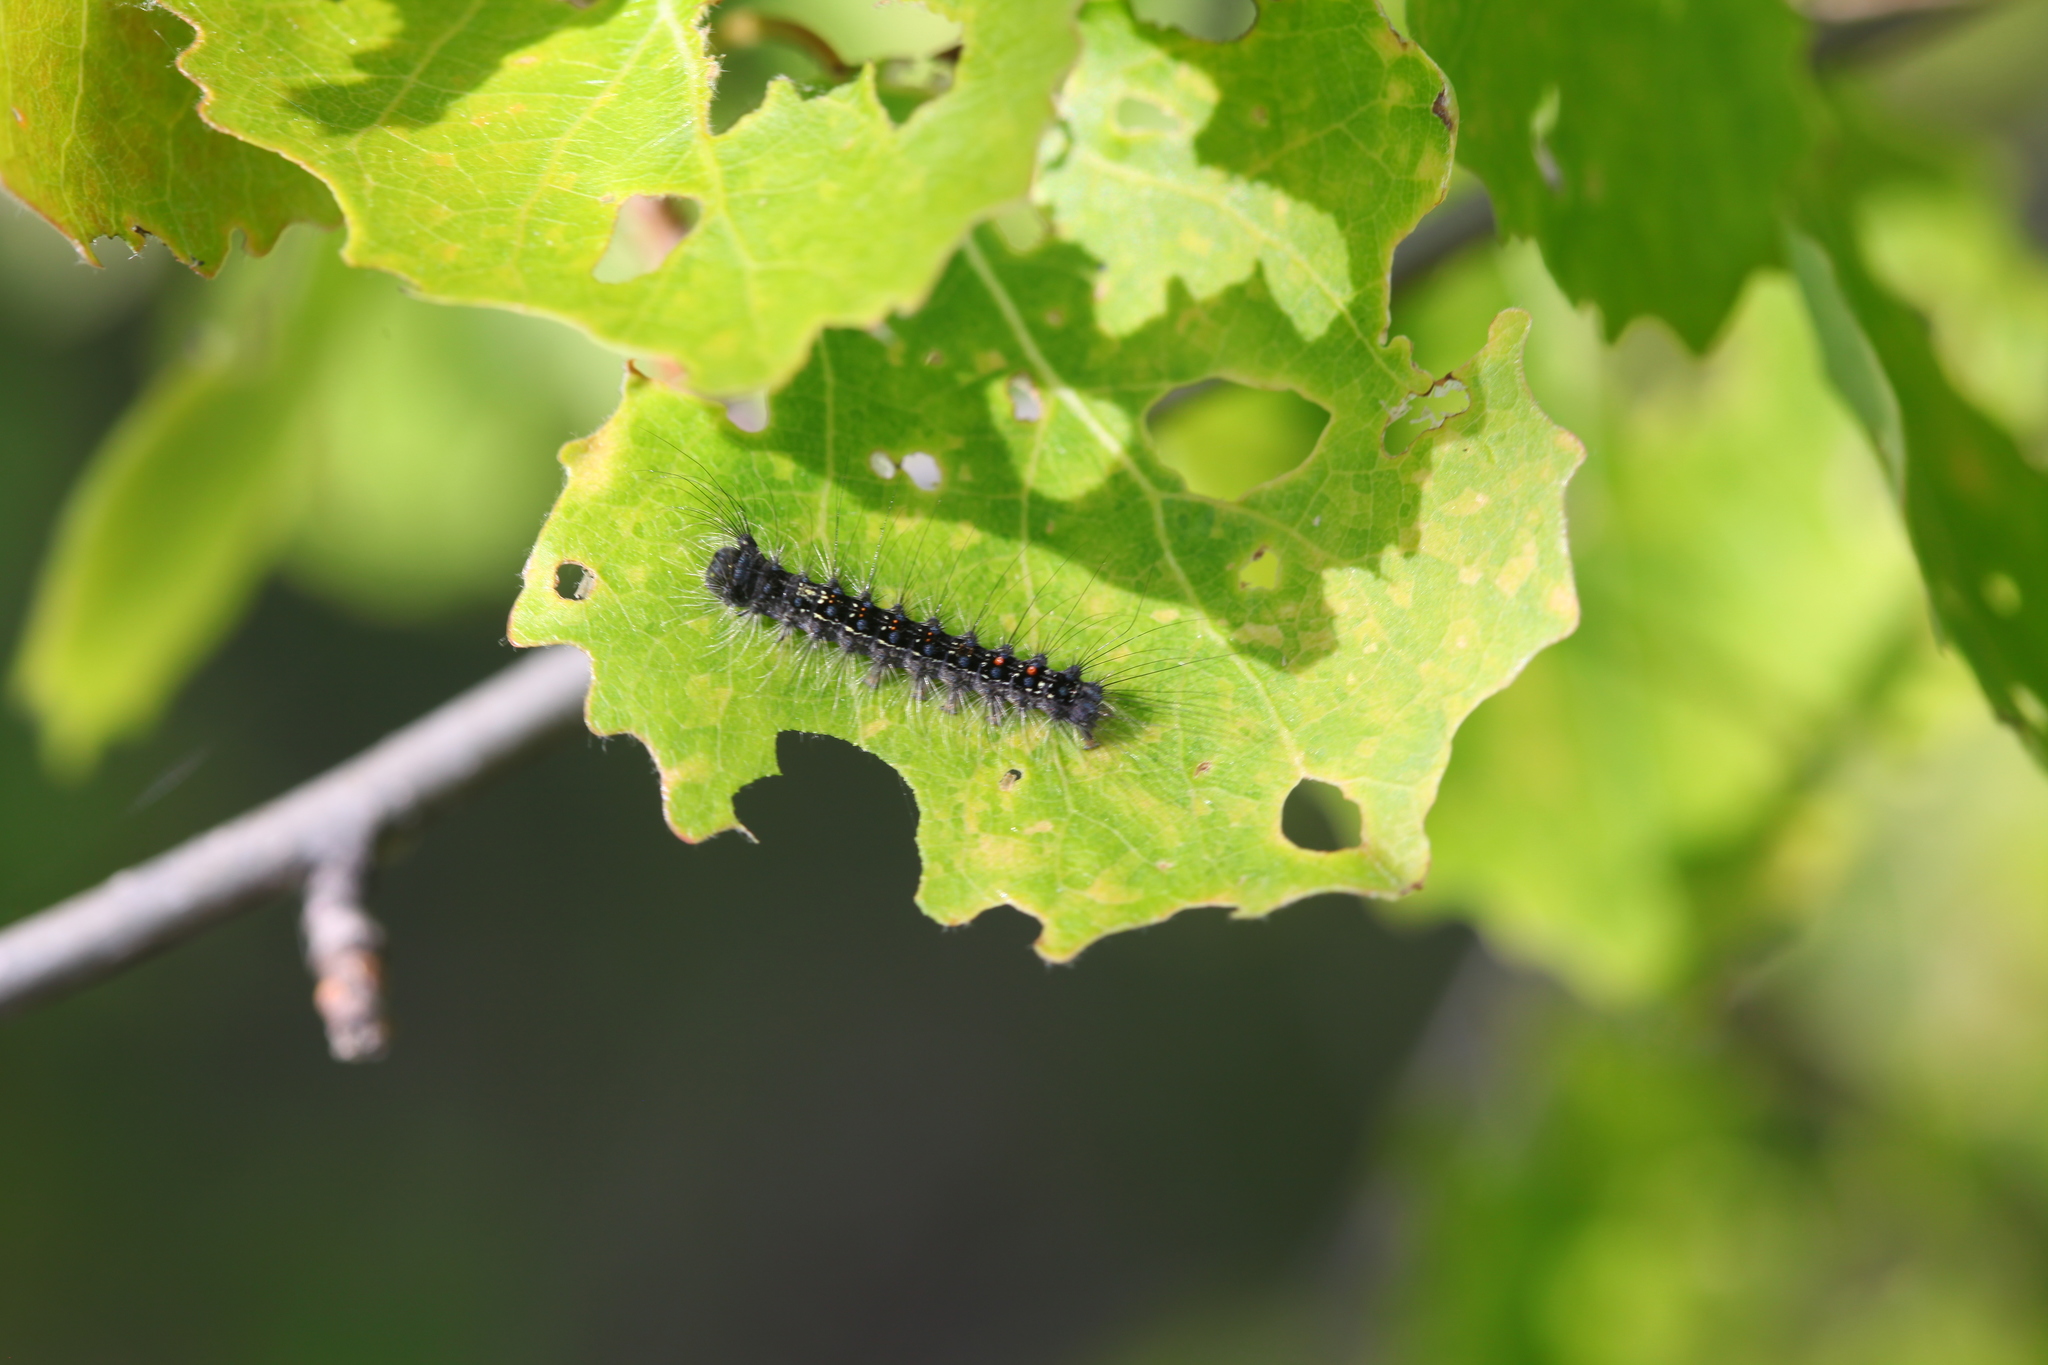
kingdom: Animalia
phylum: Arthropoda
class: Insecta
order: Lepidoptera
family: Erebidae
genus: Lymantria
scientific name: Lymantria dispar
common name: Gypsy moth
